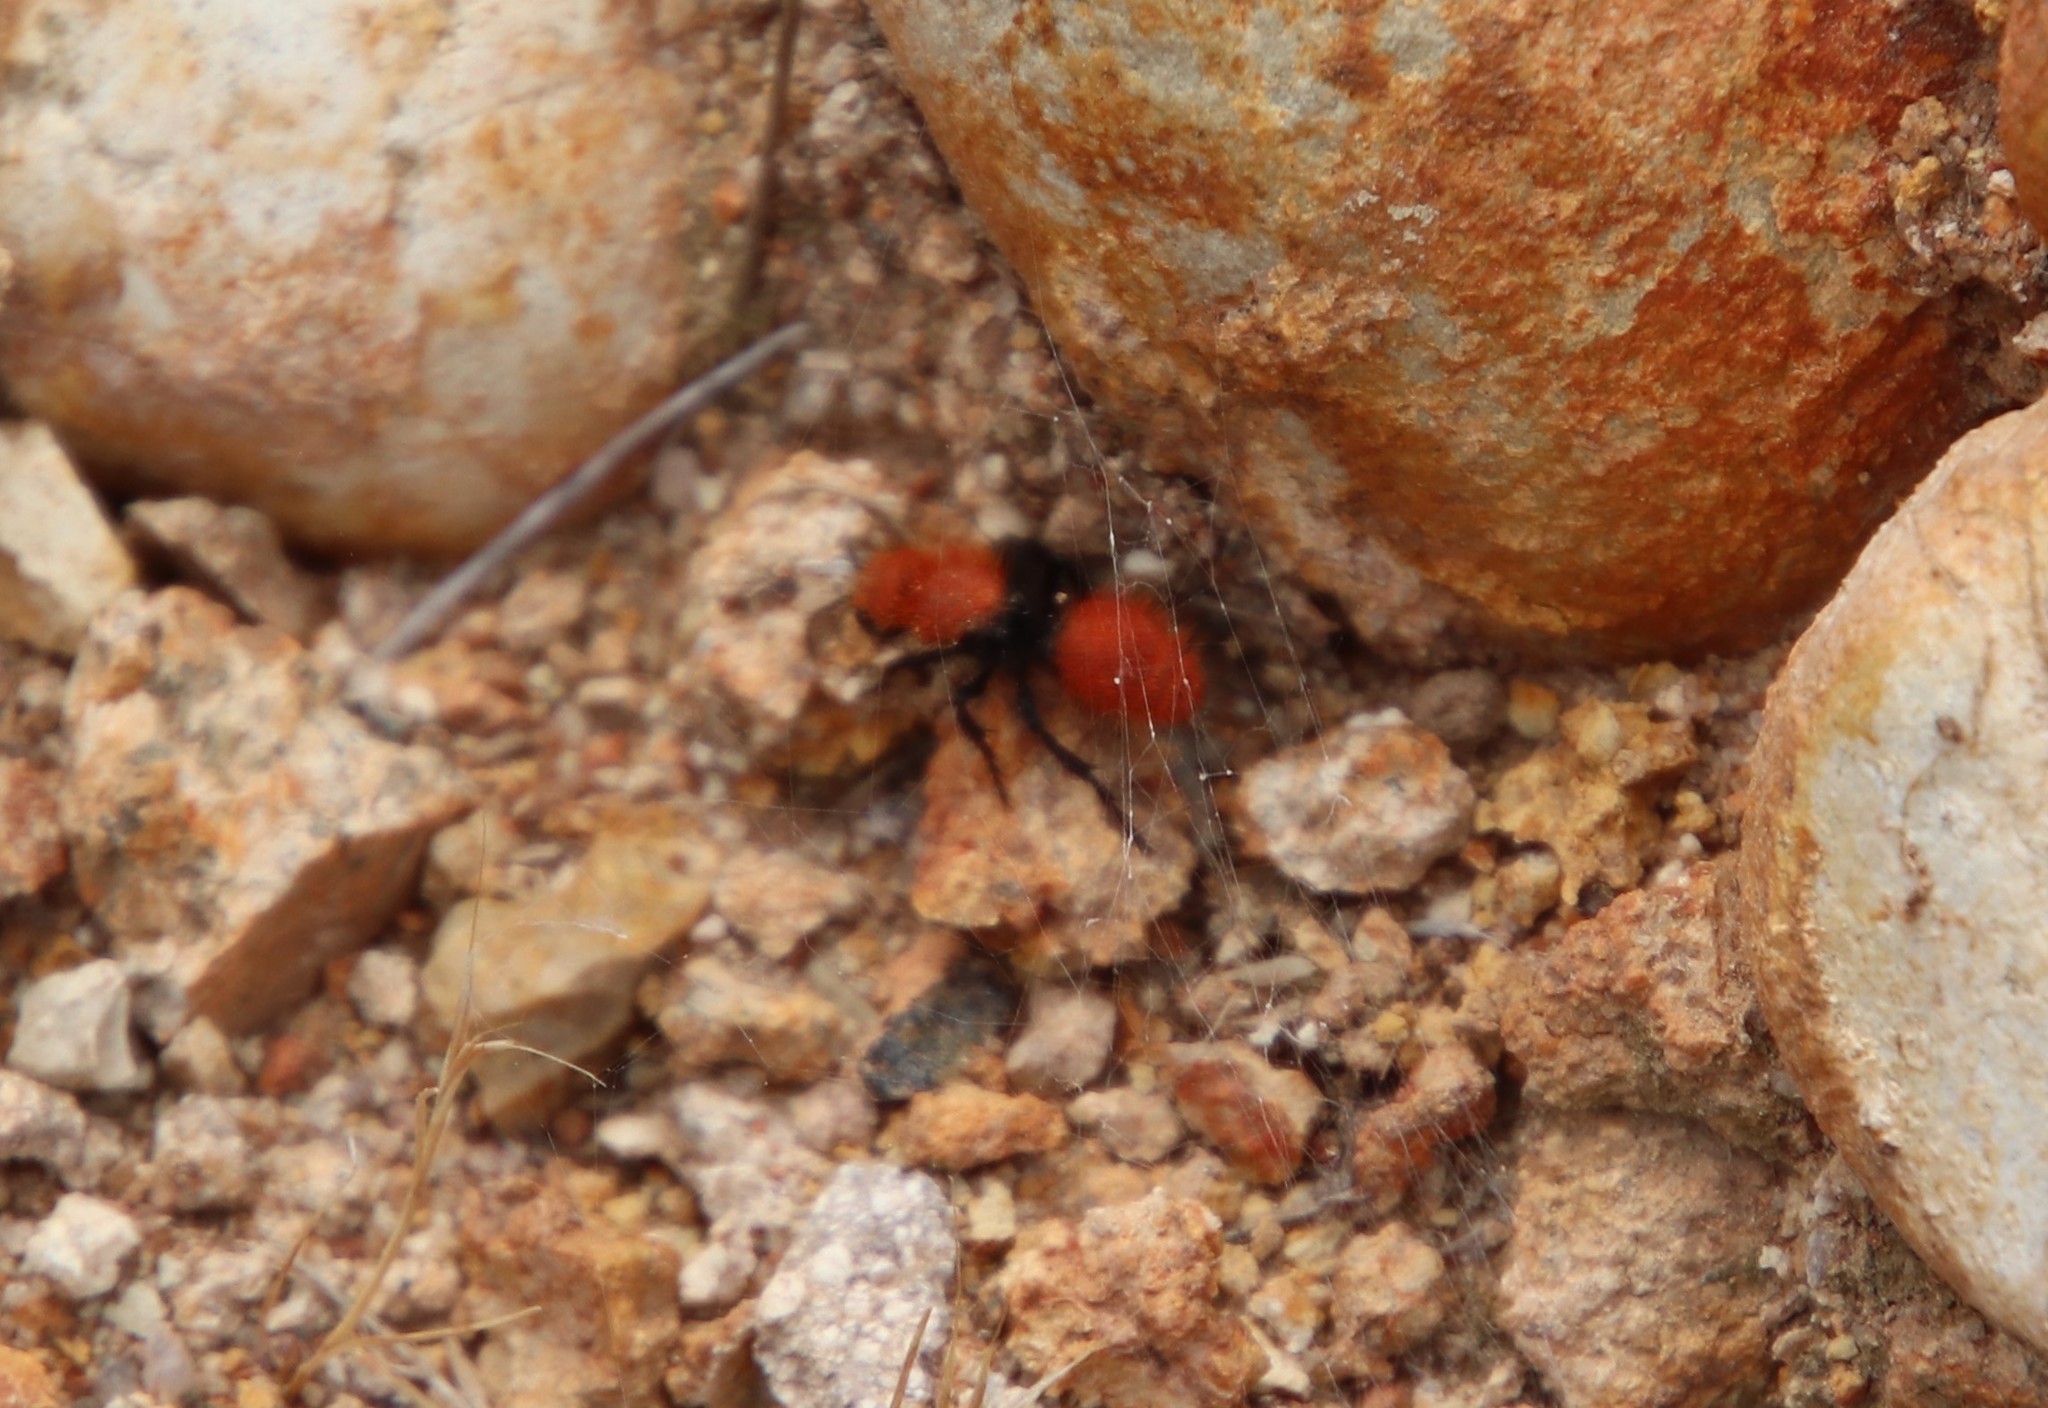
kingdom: Animalia
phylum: Arthropoda
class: Insecta
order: Hymenoptera
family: Mutillidae
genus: Dasymutilla
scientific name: Dasymutilla
